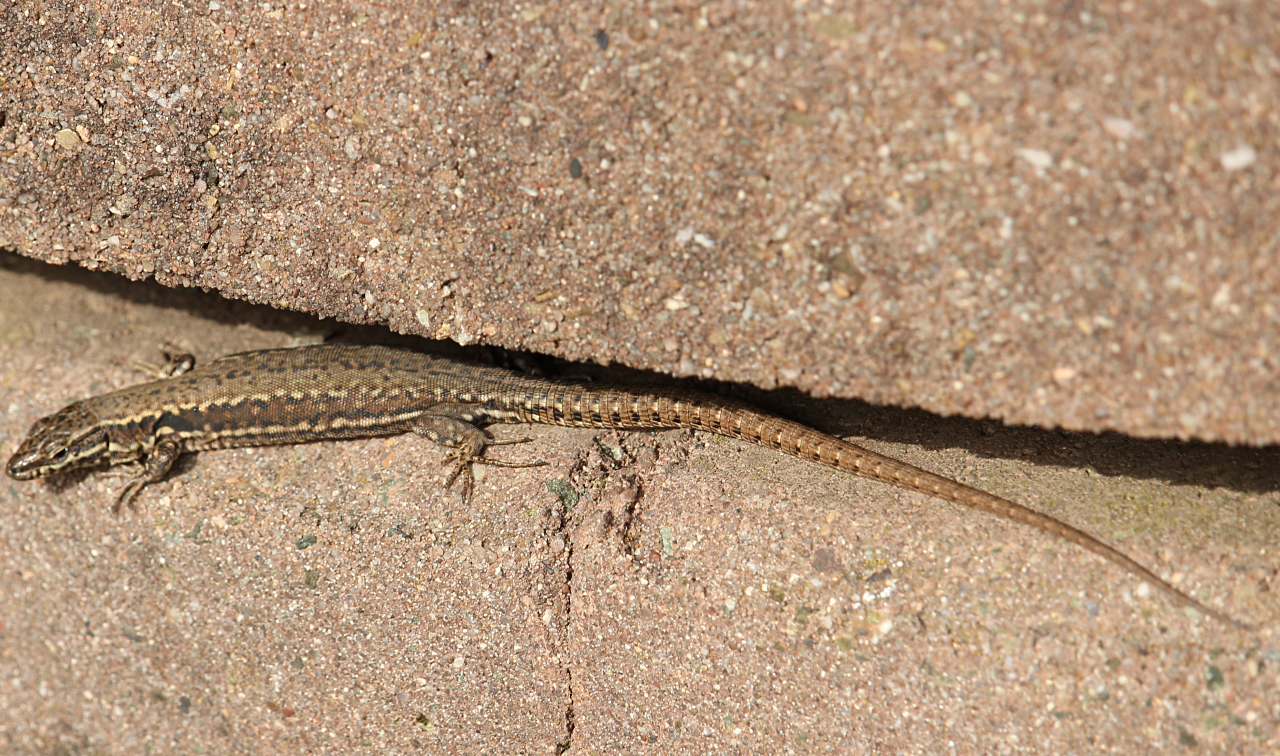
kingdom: Animalia
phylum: Chordata
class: Squamata
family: Lacertidae
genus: Podarcis
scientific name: Podarcis muralis
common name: Common wall lizard
